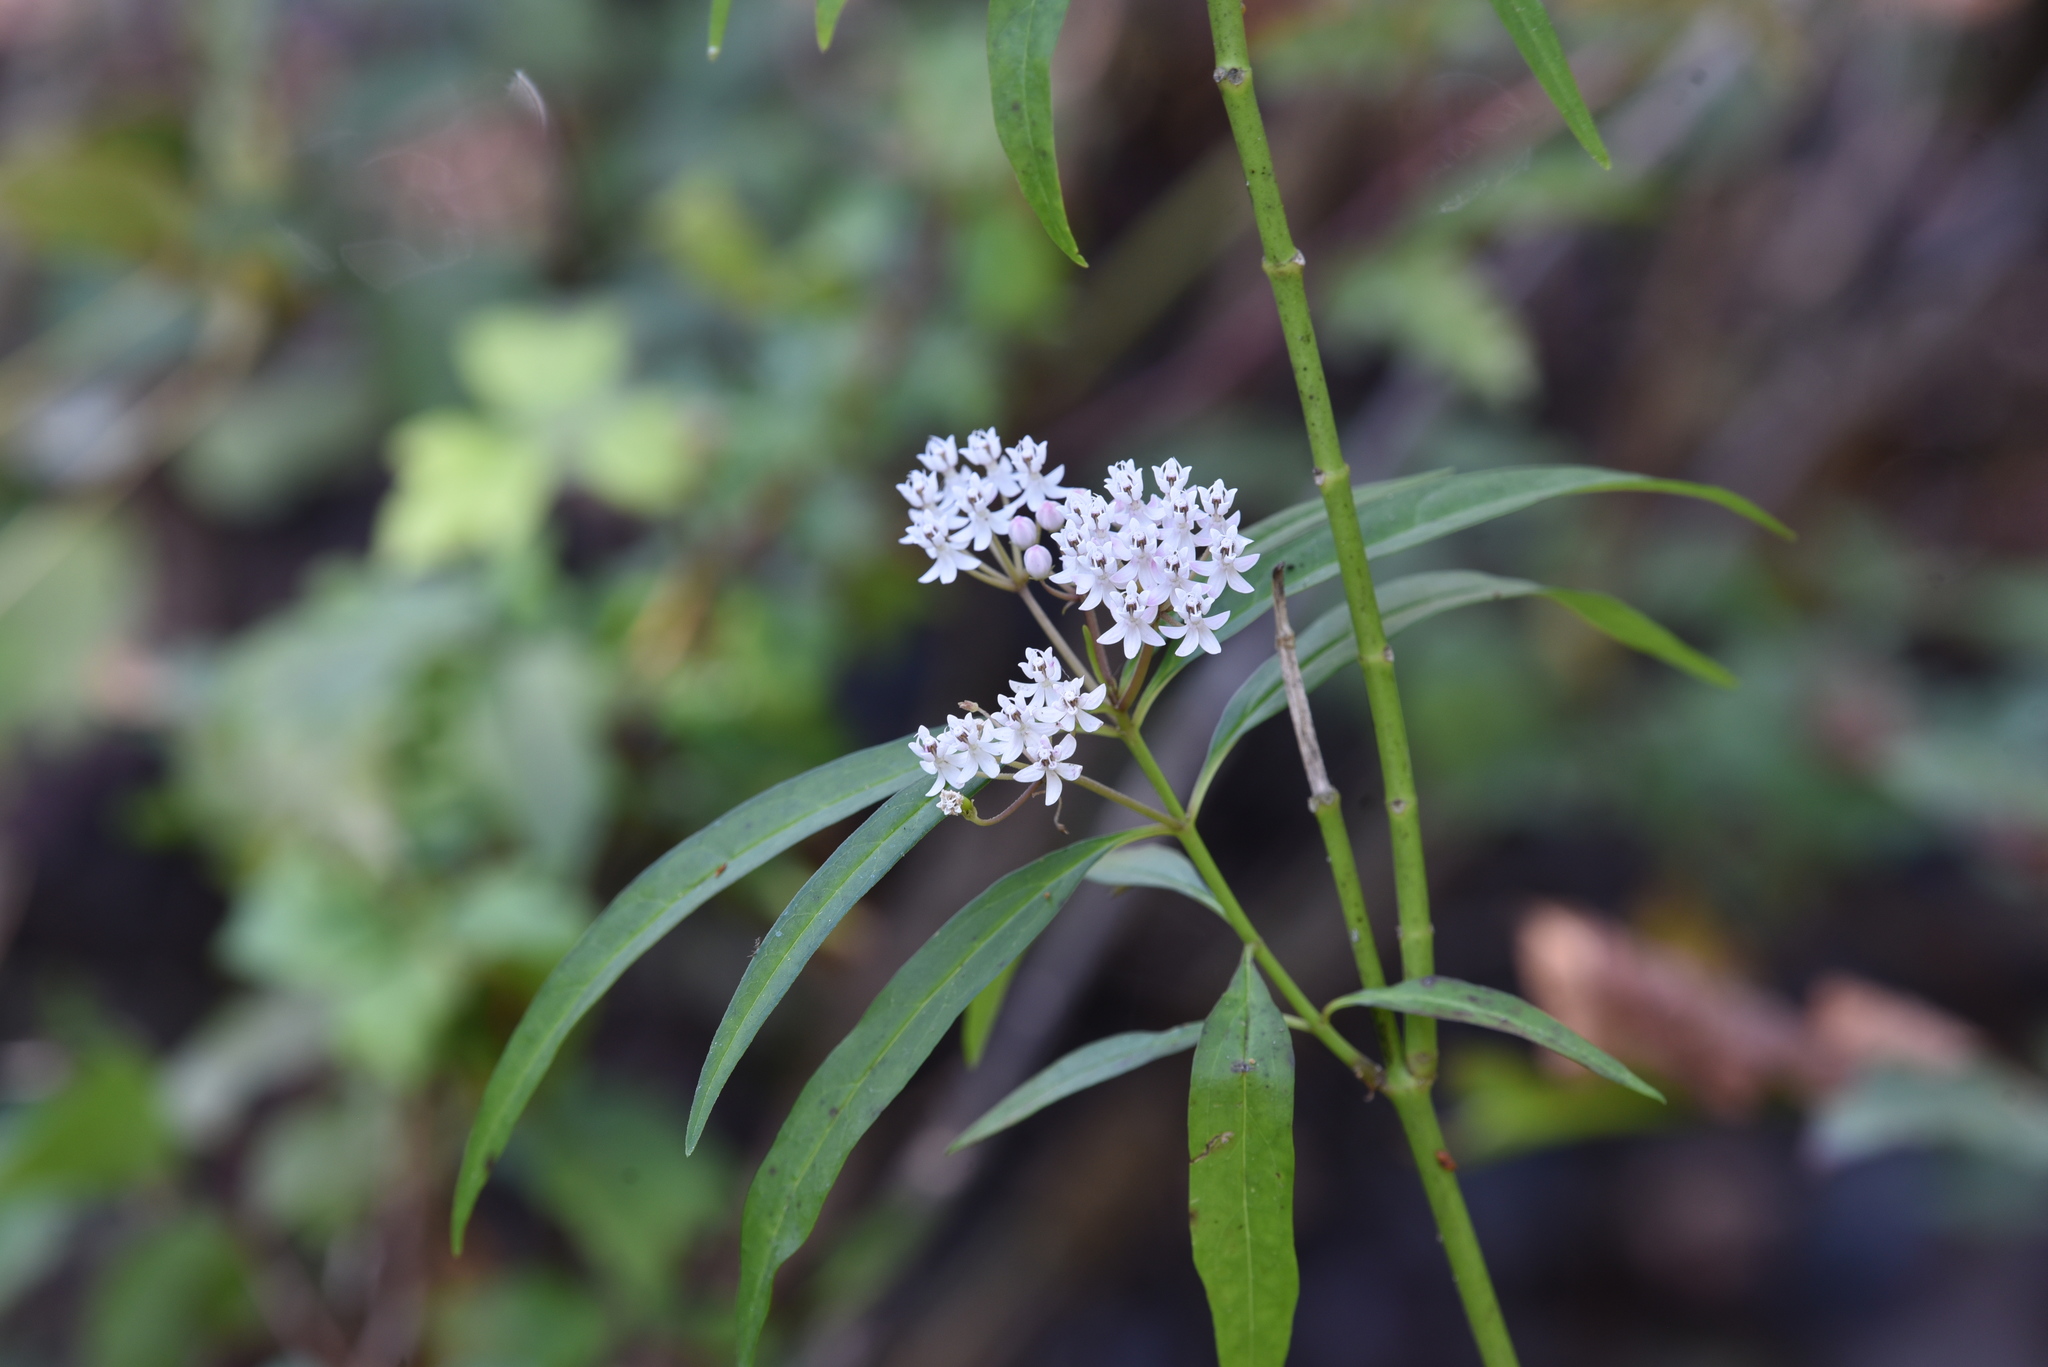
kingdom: Plantae
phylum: Tracheophyta
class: Magnoliopsida
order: Gentianales
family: Apocynaceae
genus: Asclepias
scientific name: Asclepias perennis
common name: Smooth-seed milkweed
